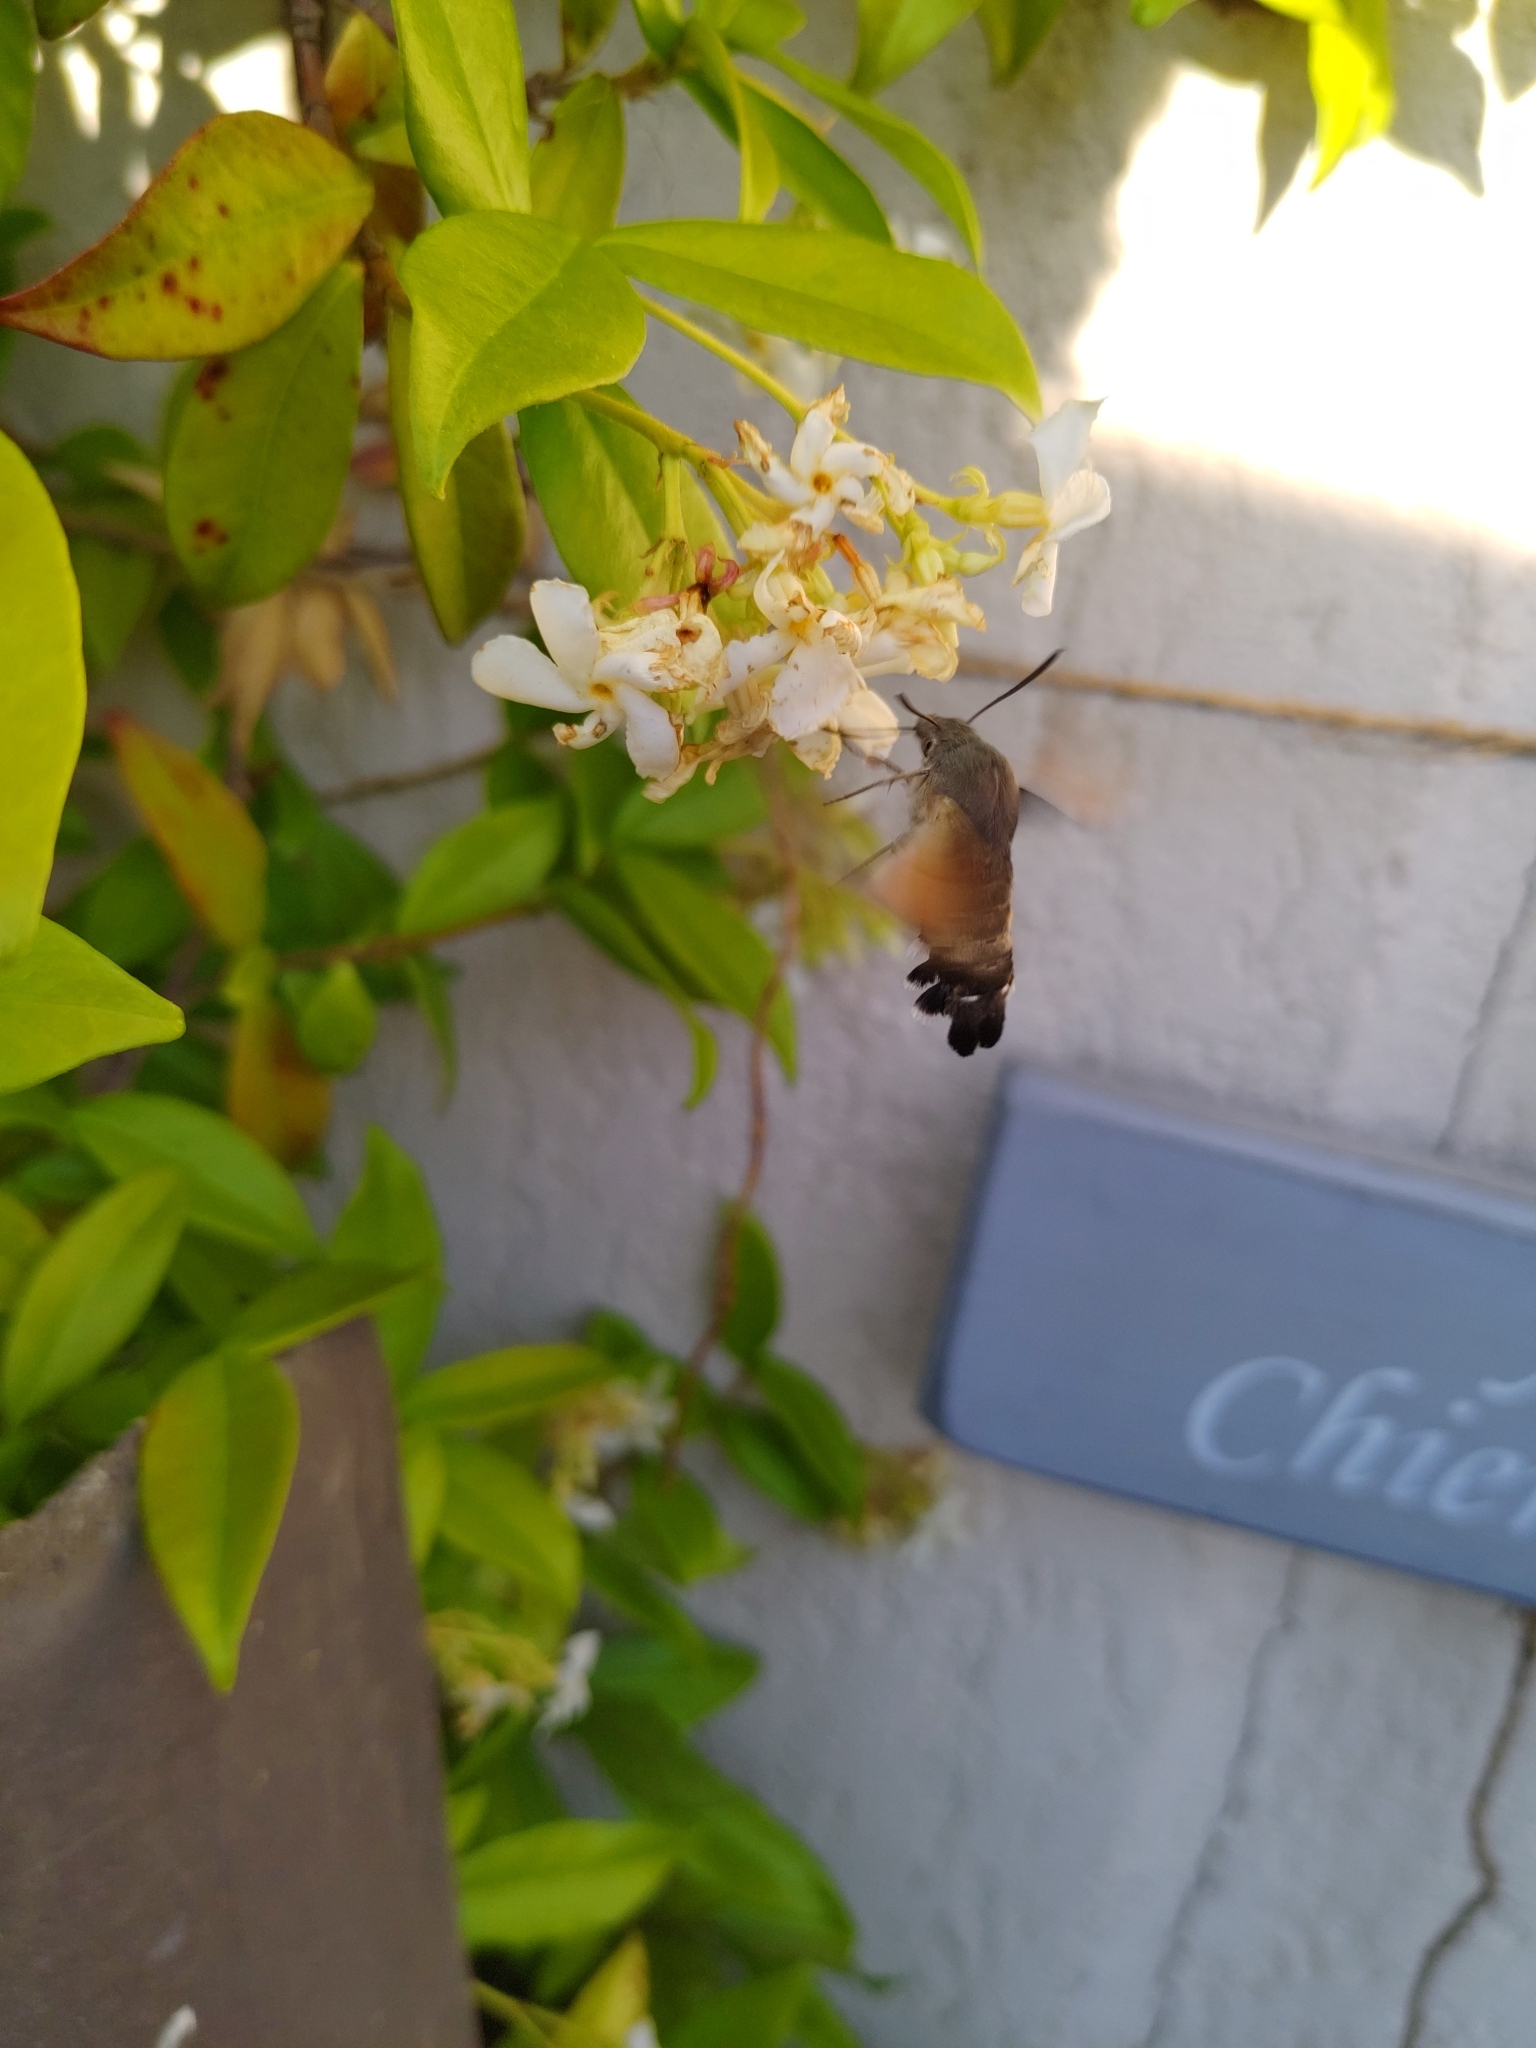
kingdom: Animalia
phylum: Arthropoda
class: Insecta
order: Lepidoptera
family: Sphingidae
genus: Macroglossum
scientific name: Macroglossum stellatarum
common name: Humming-bird hawk-moth
